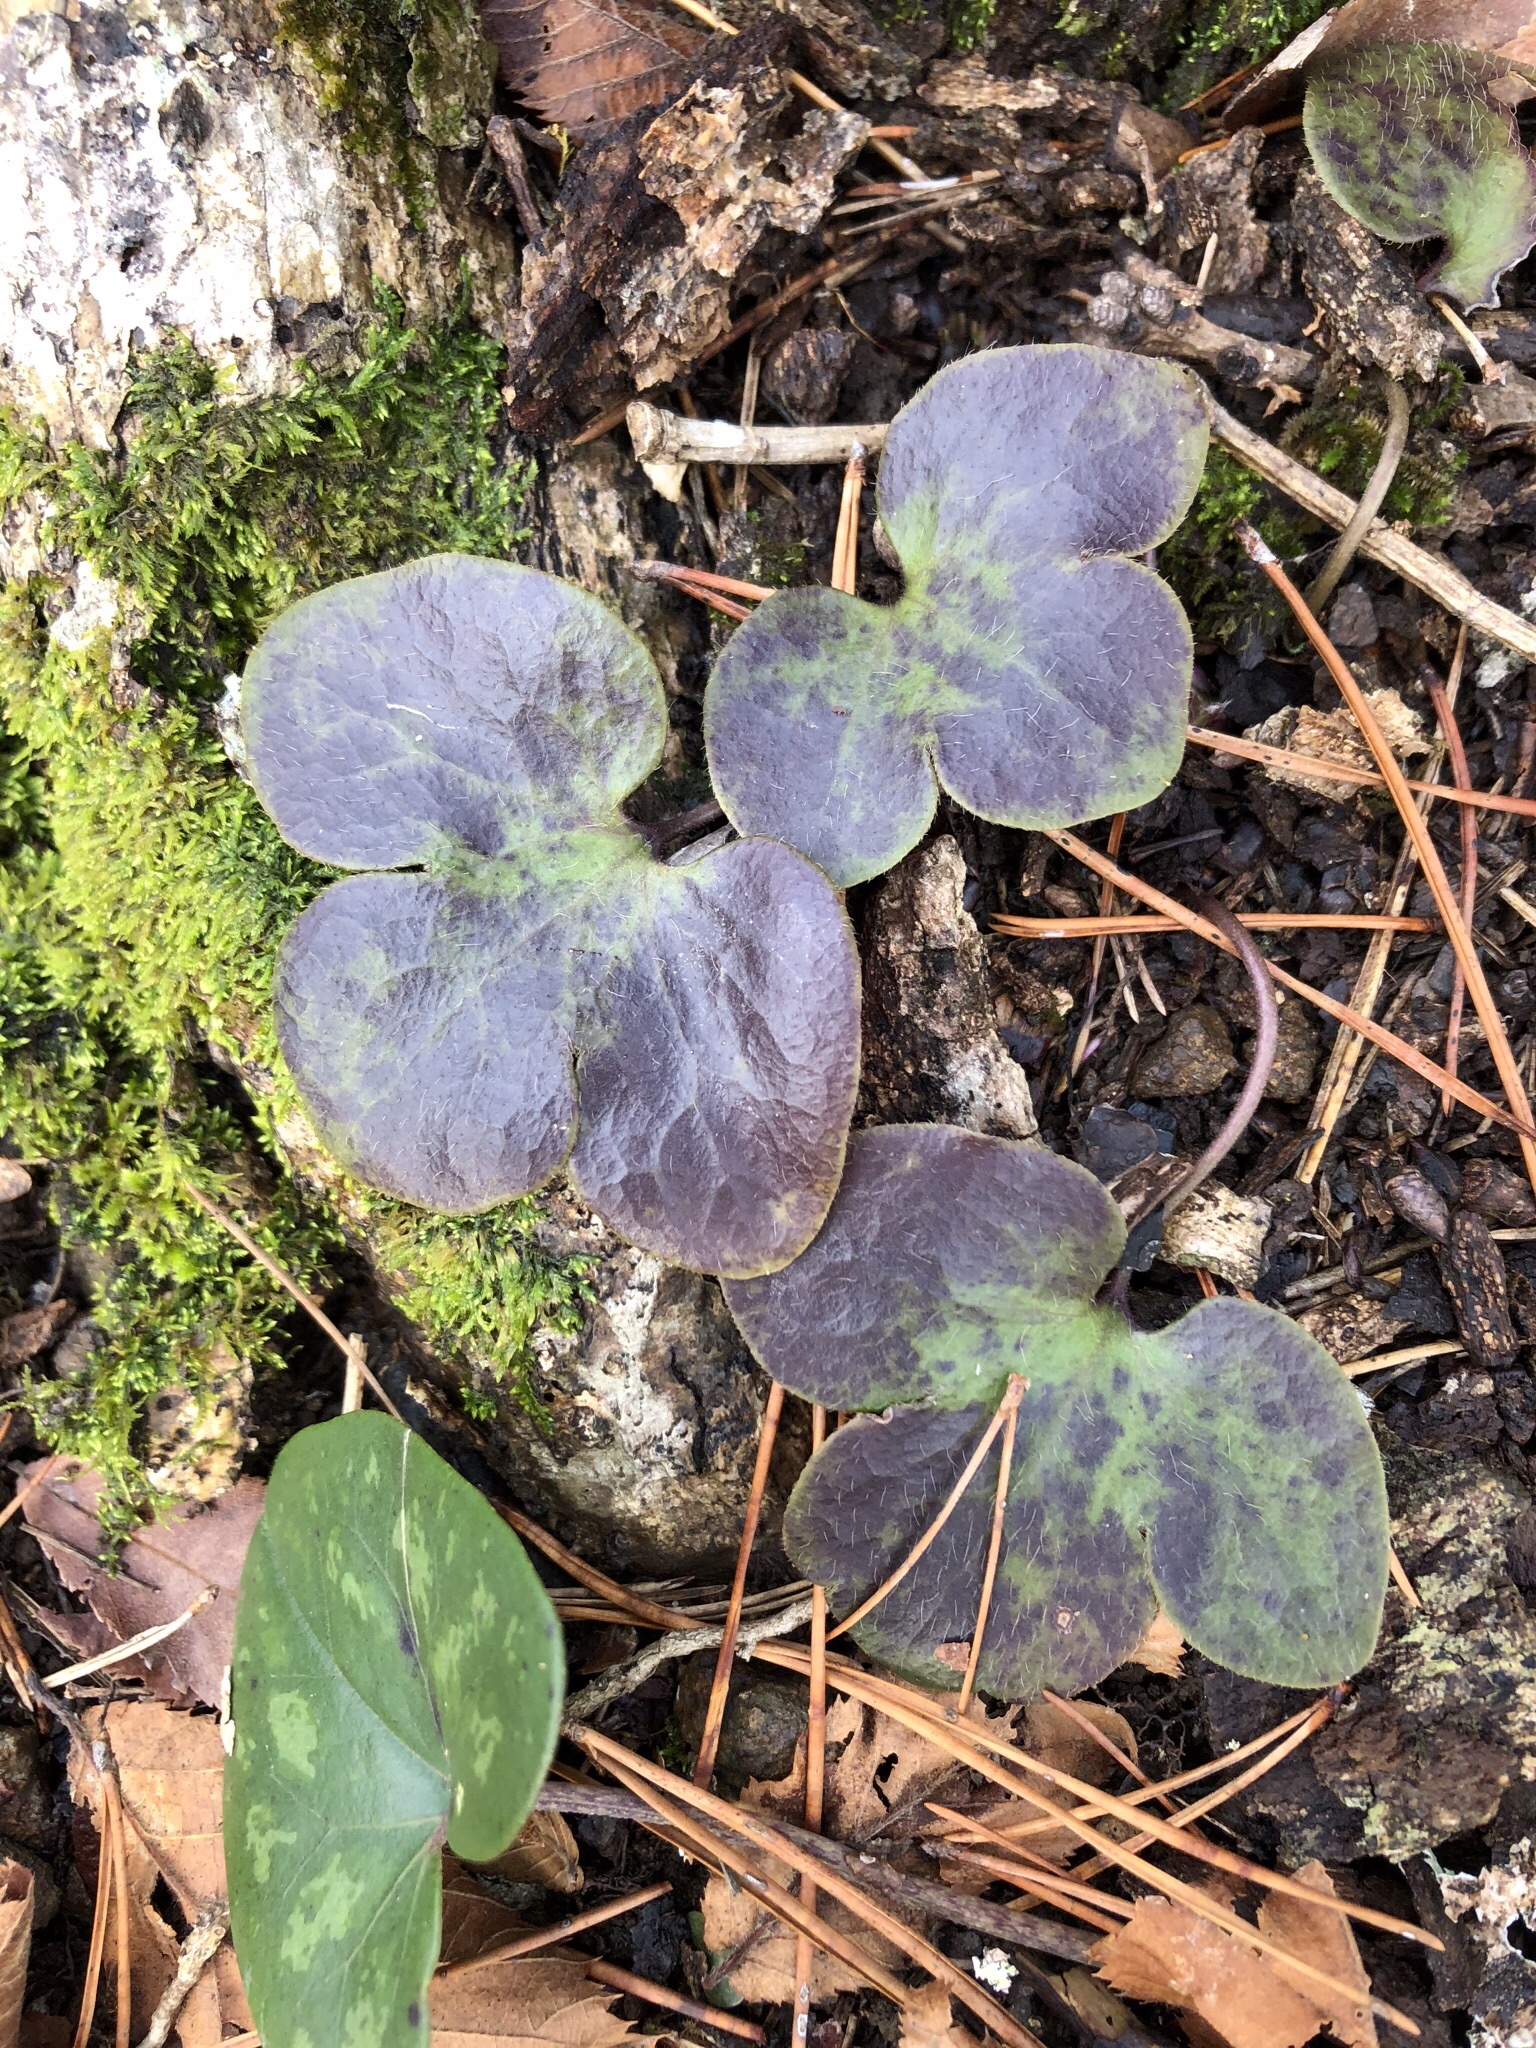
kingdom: Plantae
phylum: Tracheophyta
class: Magnoliopsida
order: Ranunculales
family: Ranunculaceae
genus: Hepatica
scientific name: Hepatica americana
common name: American hepatica
